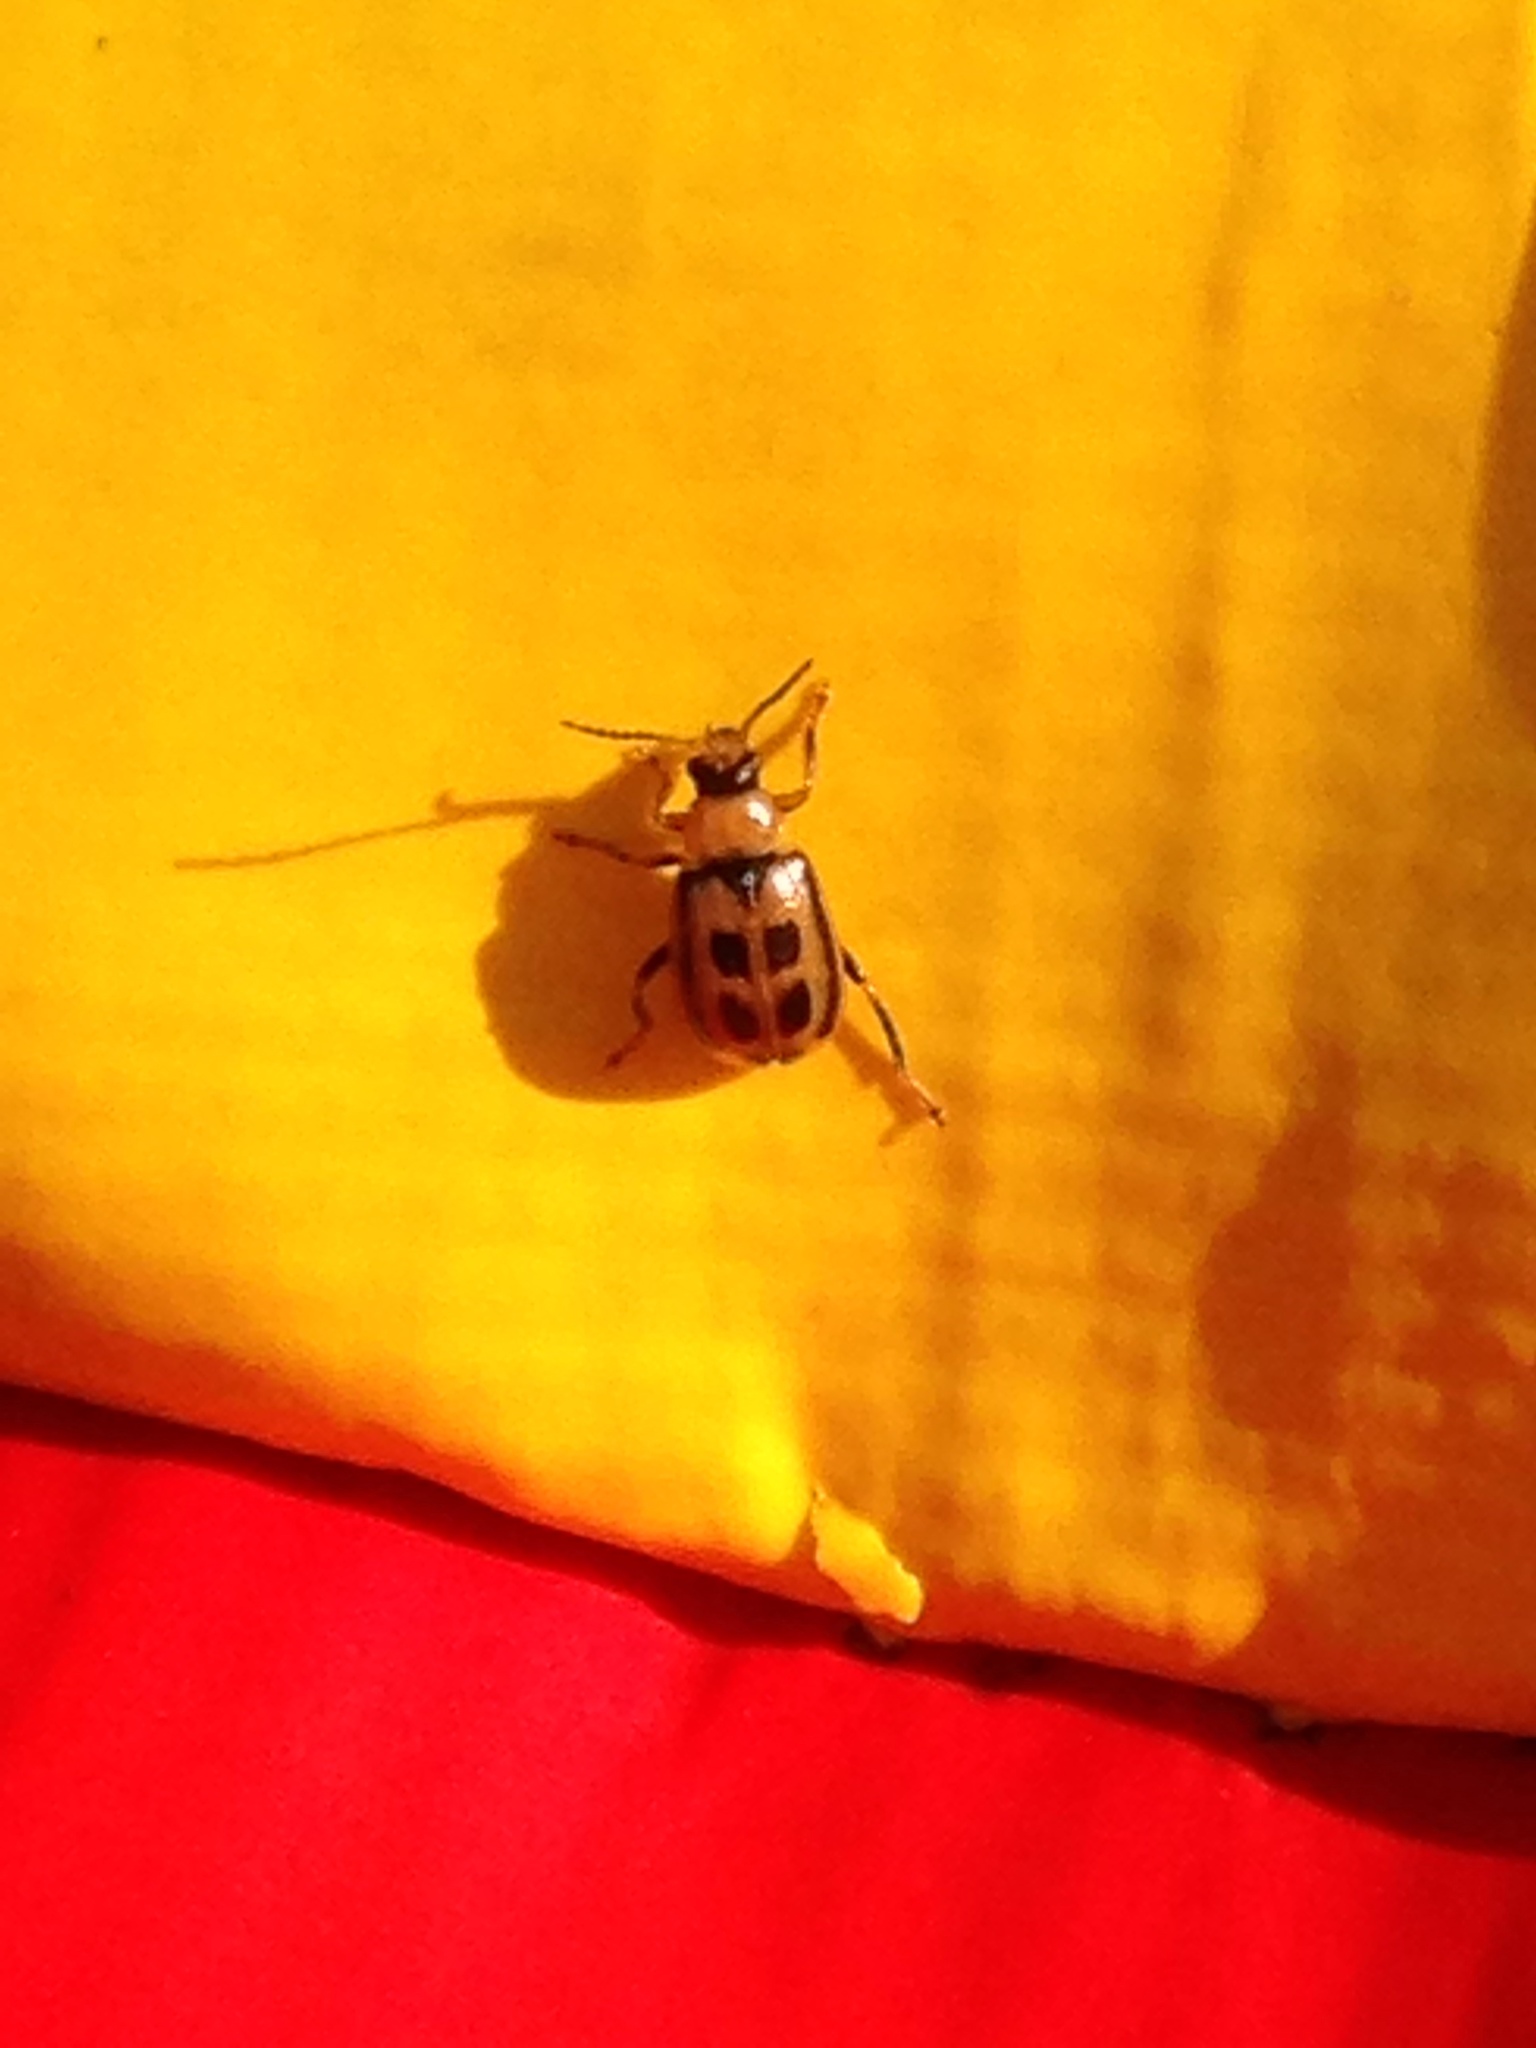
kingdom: Animalia
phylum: Arthropoda
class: Insecta
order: Coleoptera
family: Chrysomelidae
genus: Cerotoma
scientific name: Cerotoma trifurcata
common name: Bean leaf beetle
